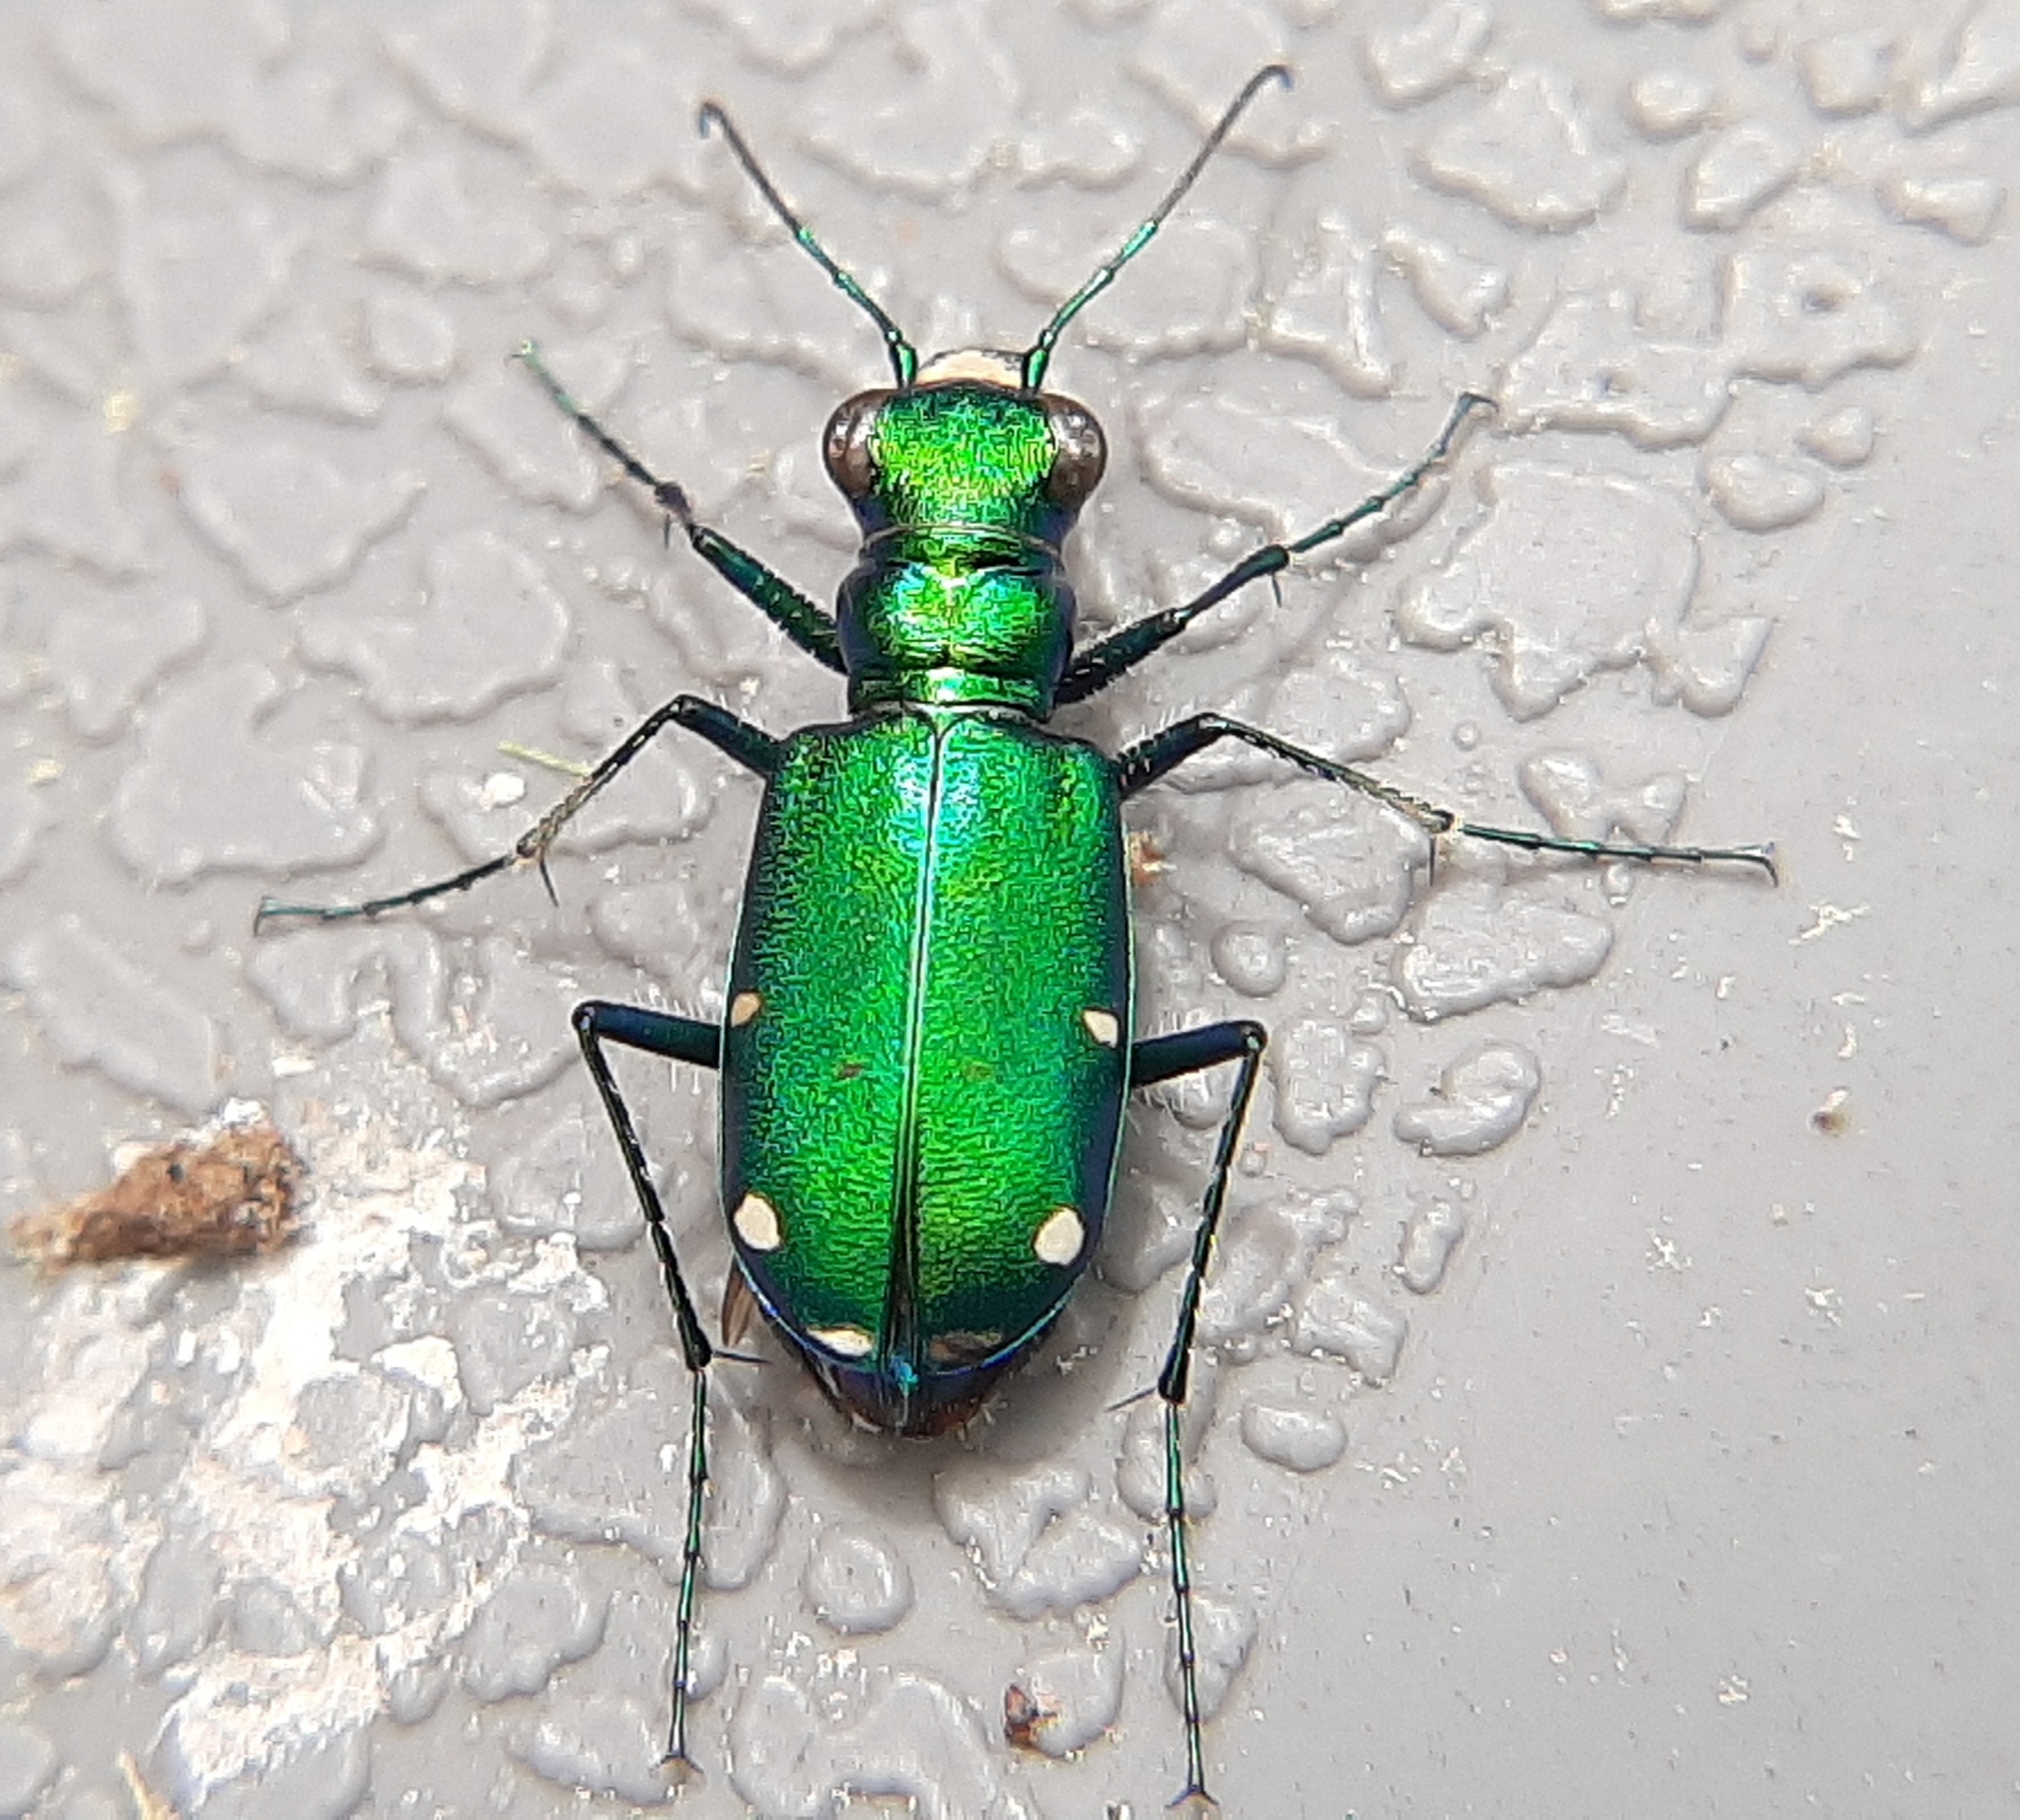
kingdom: Animalia
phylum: Arthropoda
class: Insecta
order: Coleoptera
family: Carabidae
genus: Cicindela
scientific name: Cicindela sexguttata
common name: Six-spotted tiger beetle
